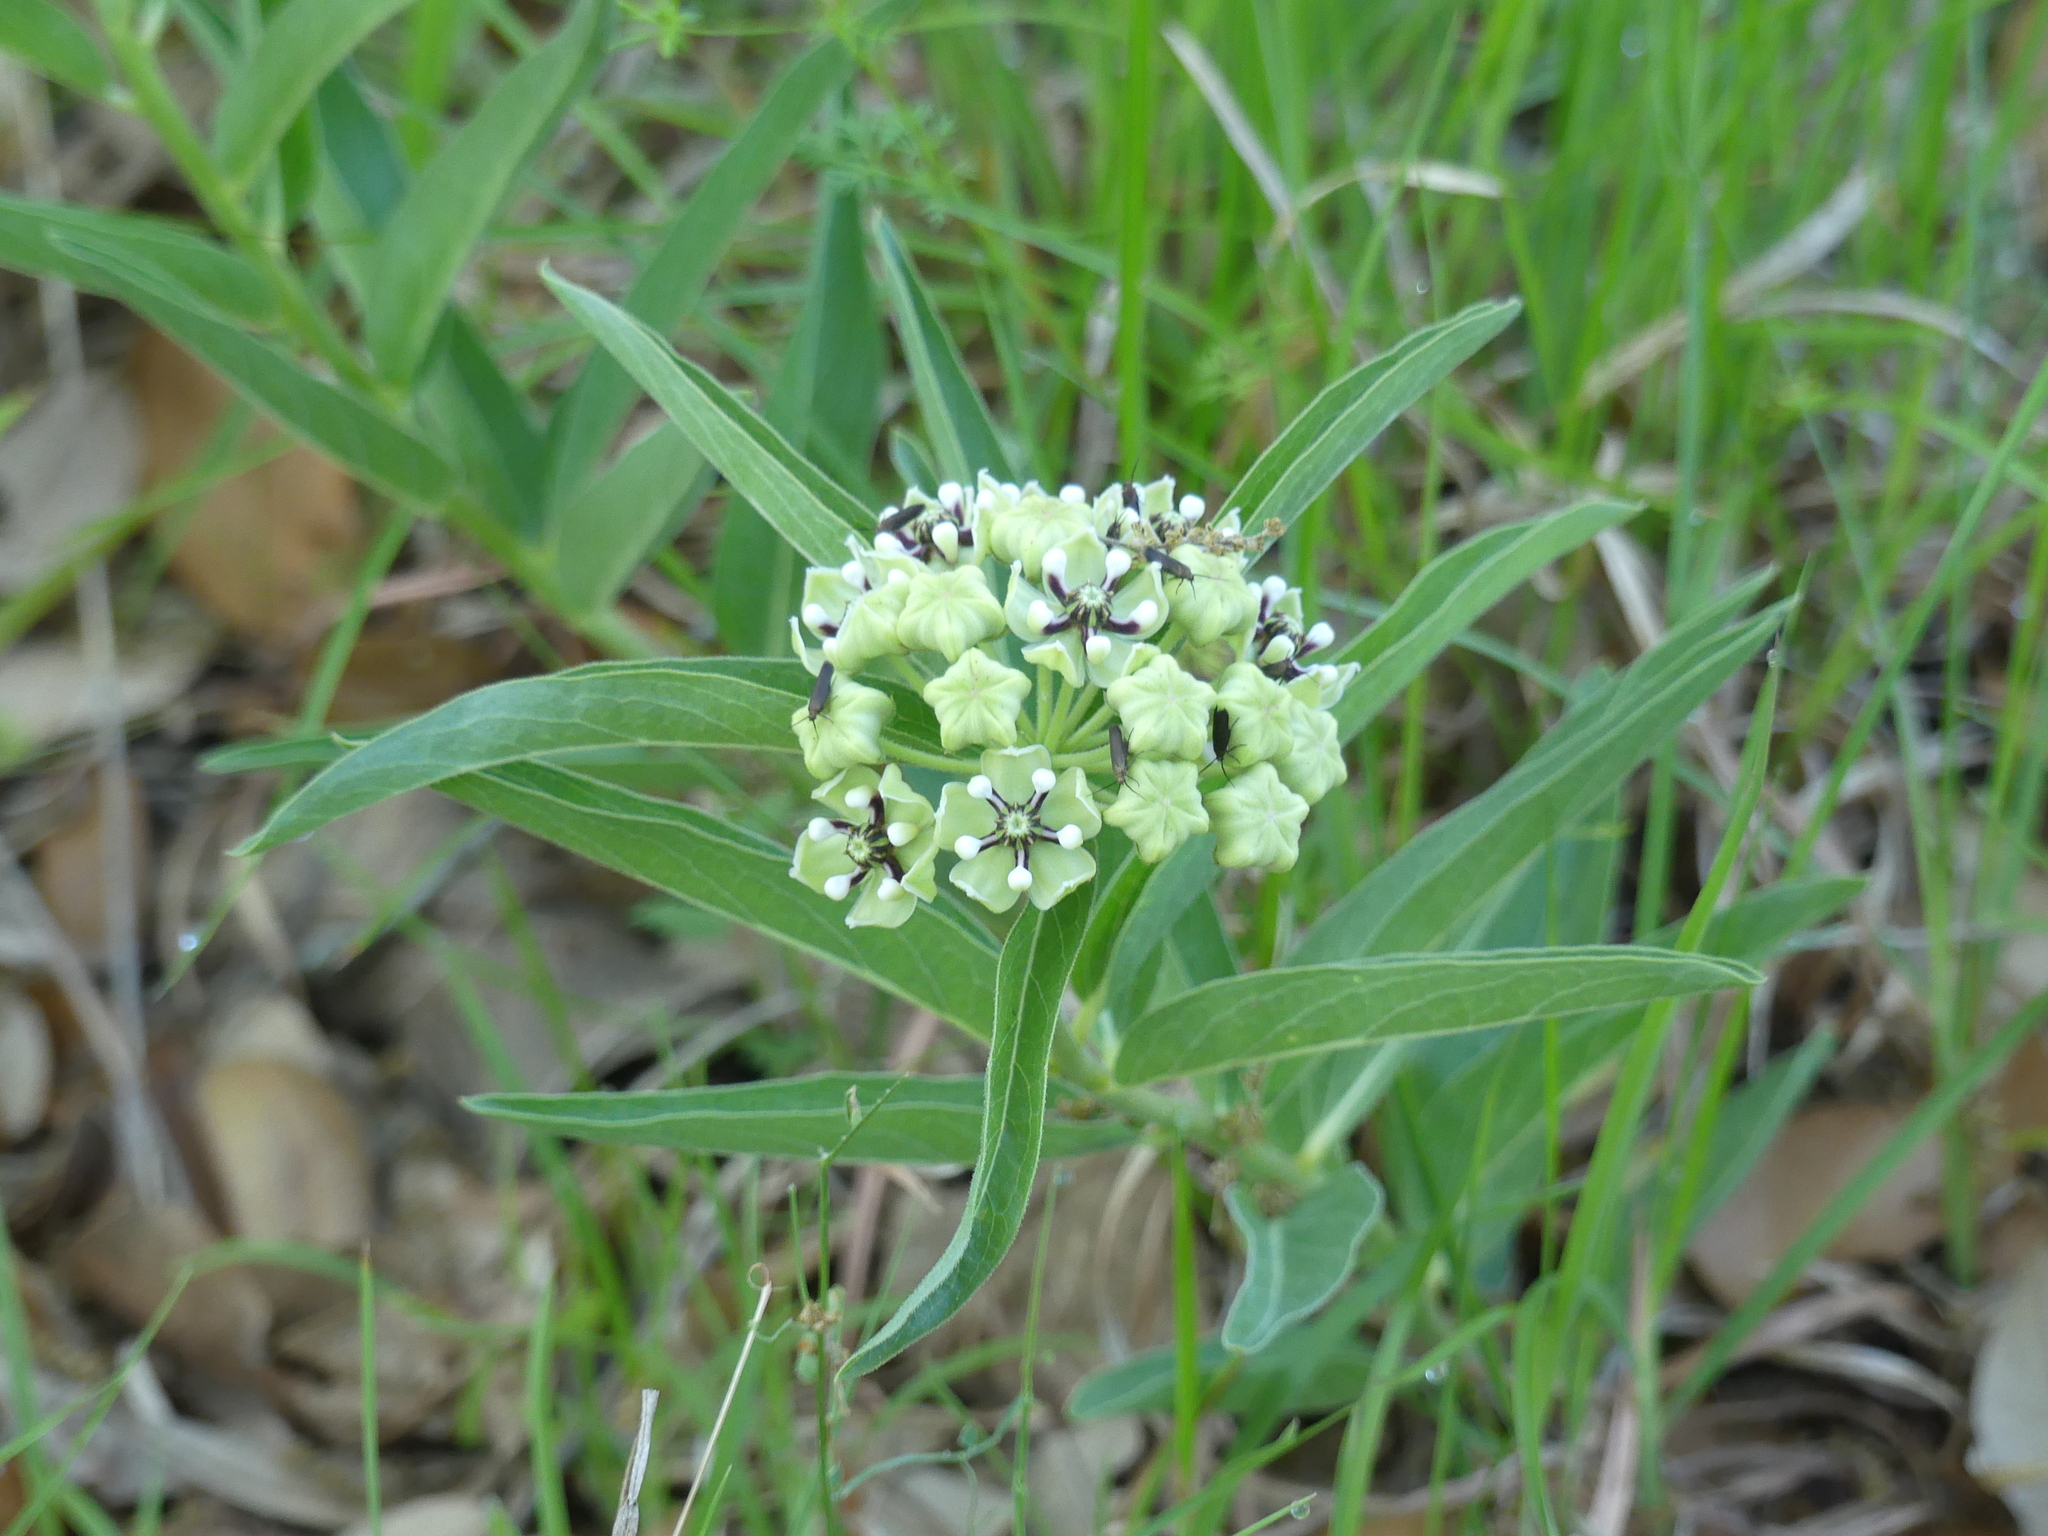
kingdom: Plantae
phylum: Tracheophyta
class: Magnoliopsida
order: Gentianales
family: Apocynaceae
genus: Asclepias
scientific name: Asclepias asperula
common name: Antelope horns
